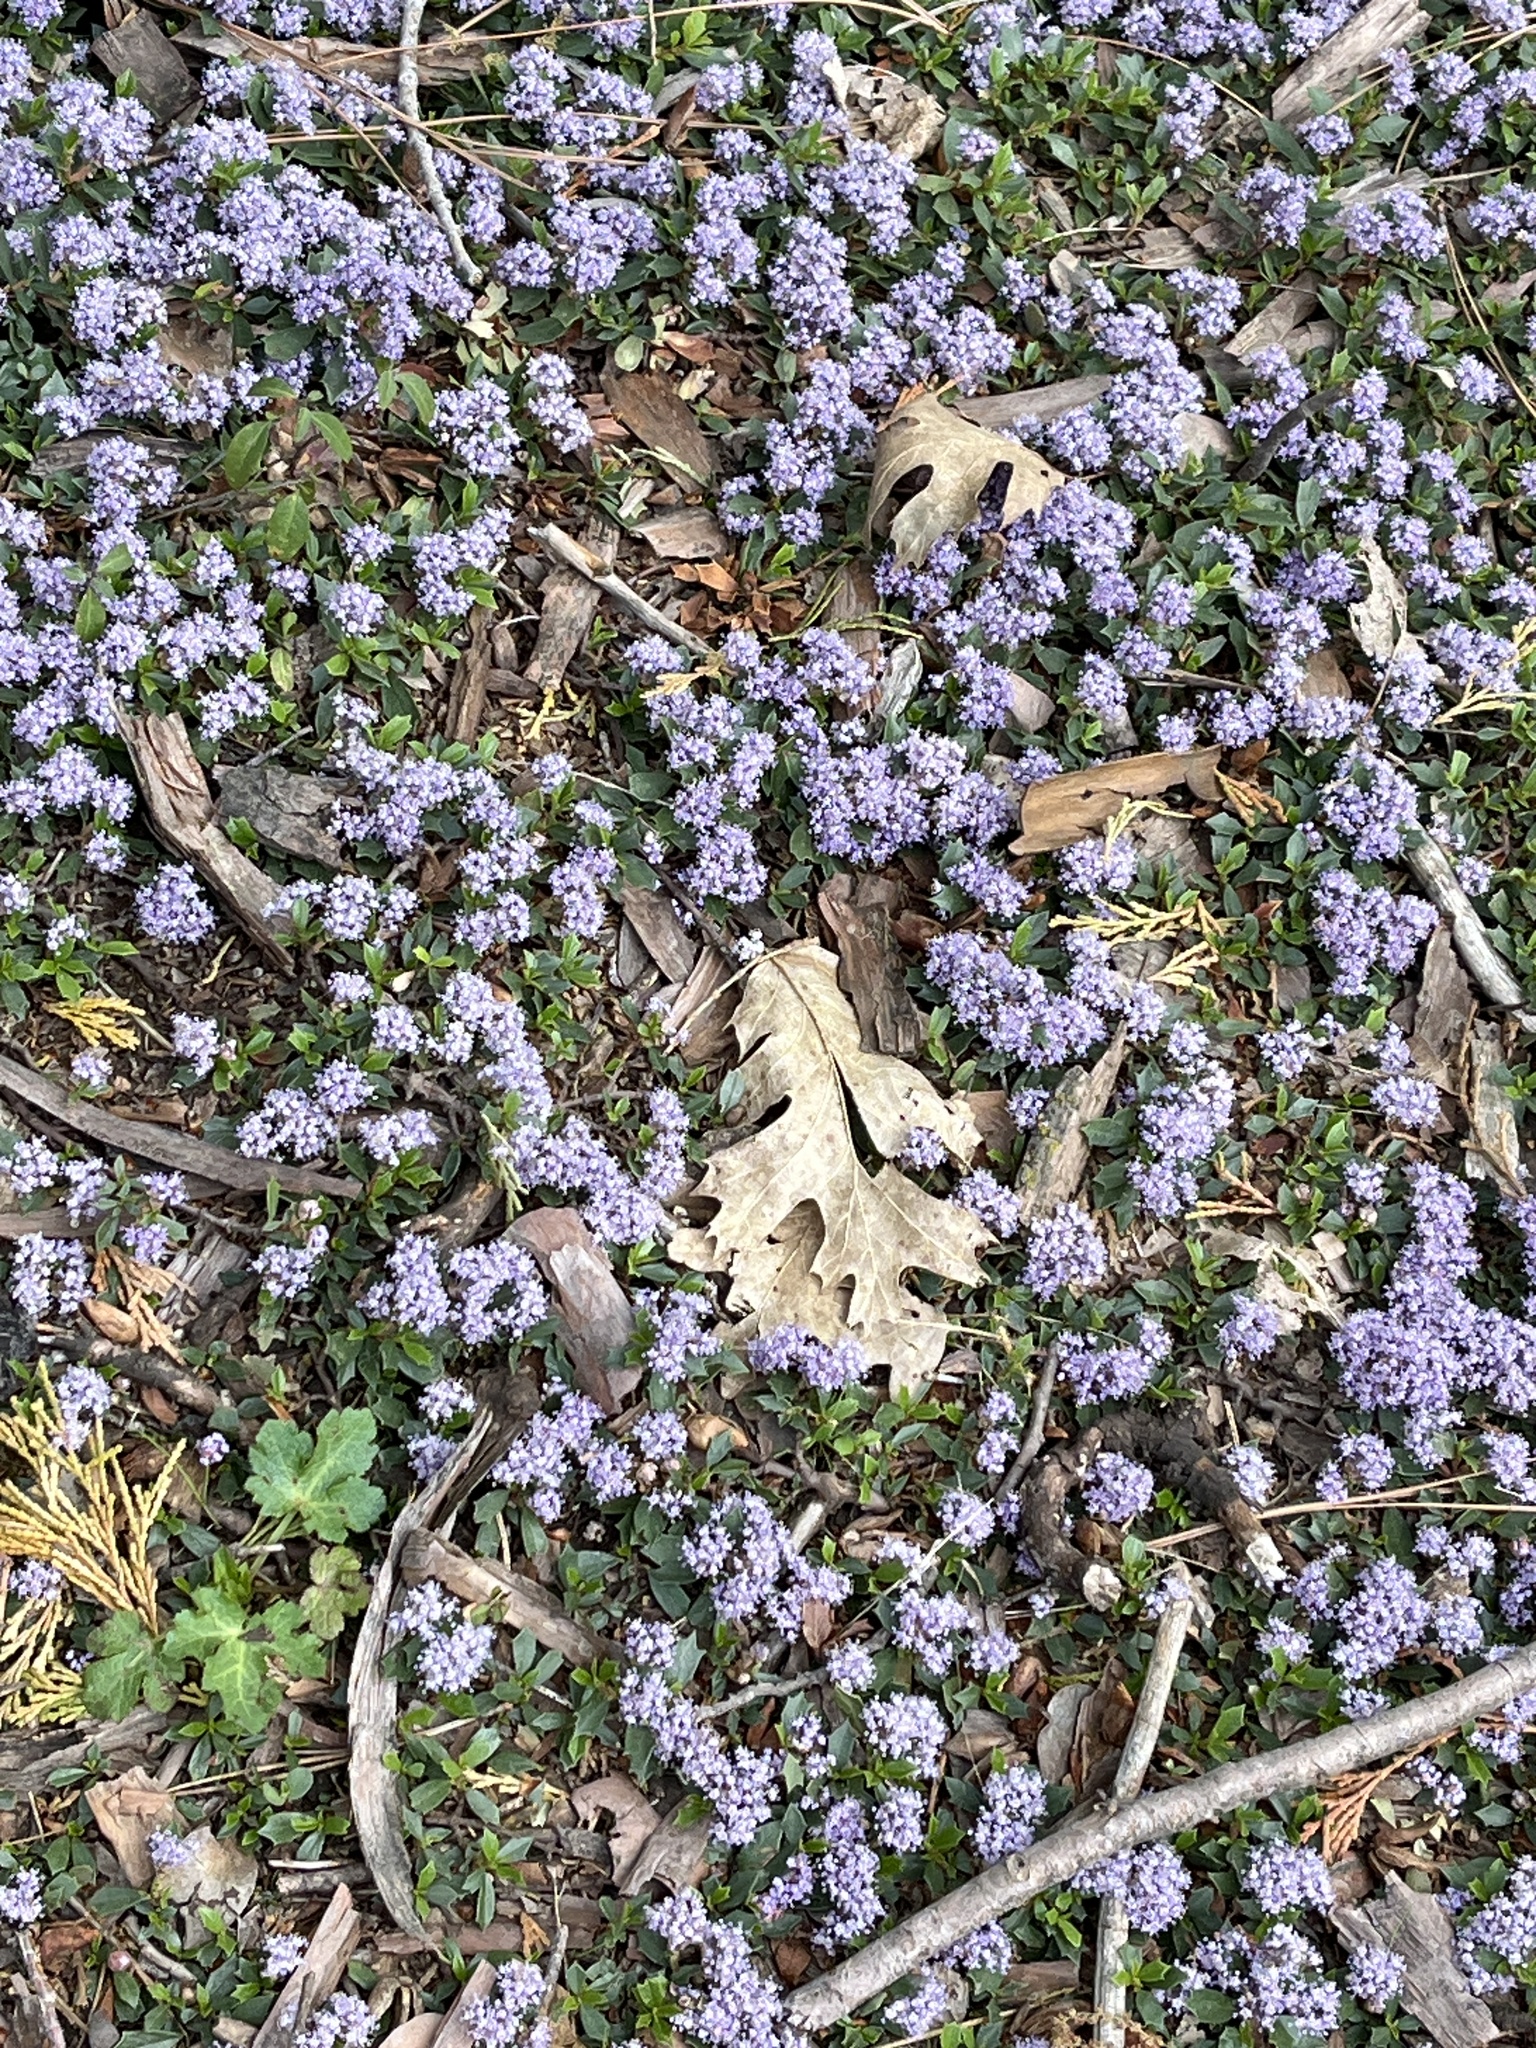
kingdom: Plantae
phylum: Tracheophyta
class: Magnoliopsida
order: Rosales
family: Rhamnaceae
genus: Ceanothus
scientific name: Ceanothus prostratus
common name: Mahala-mat
